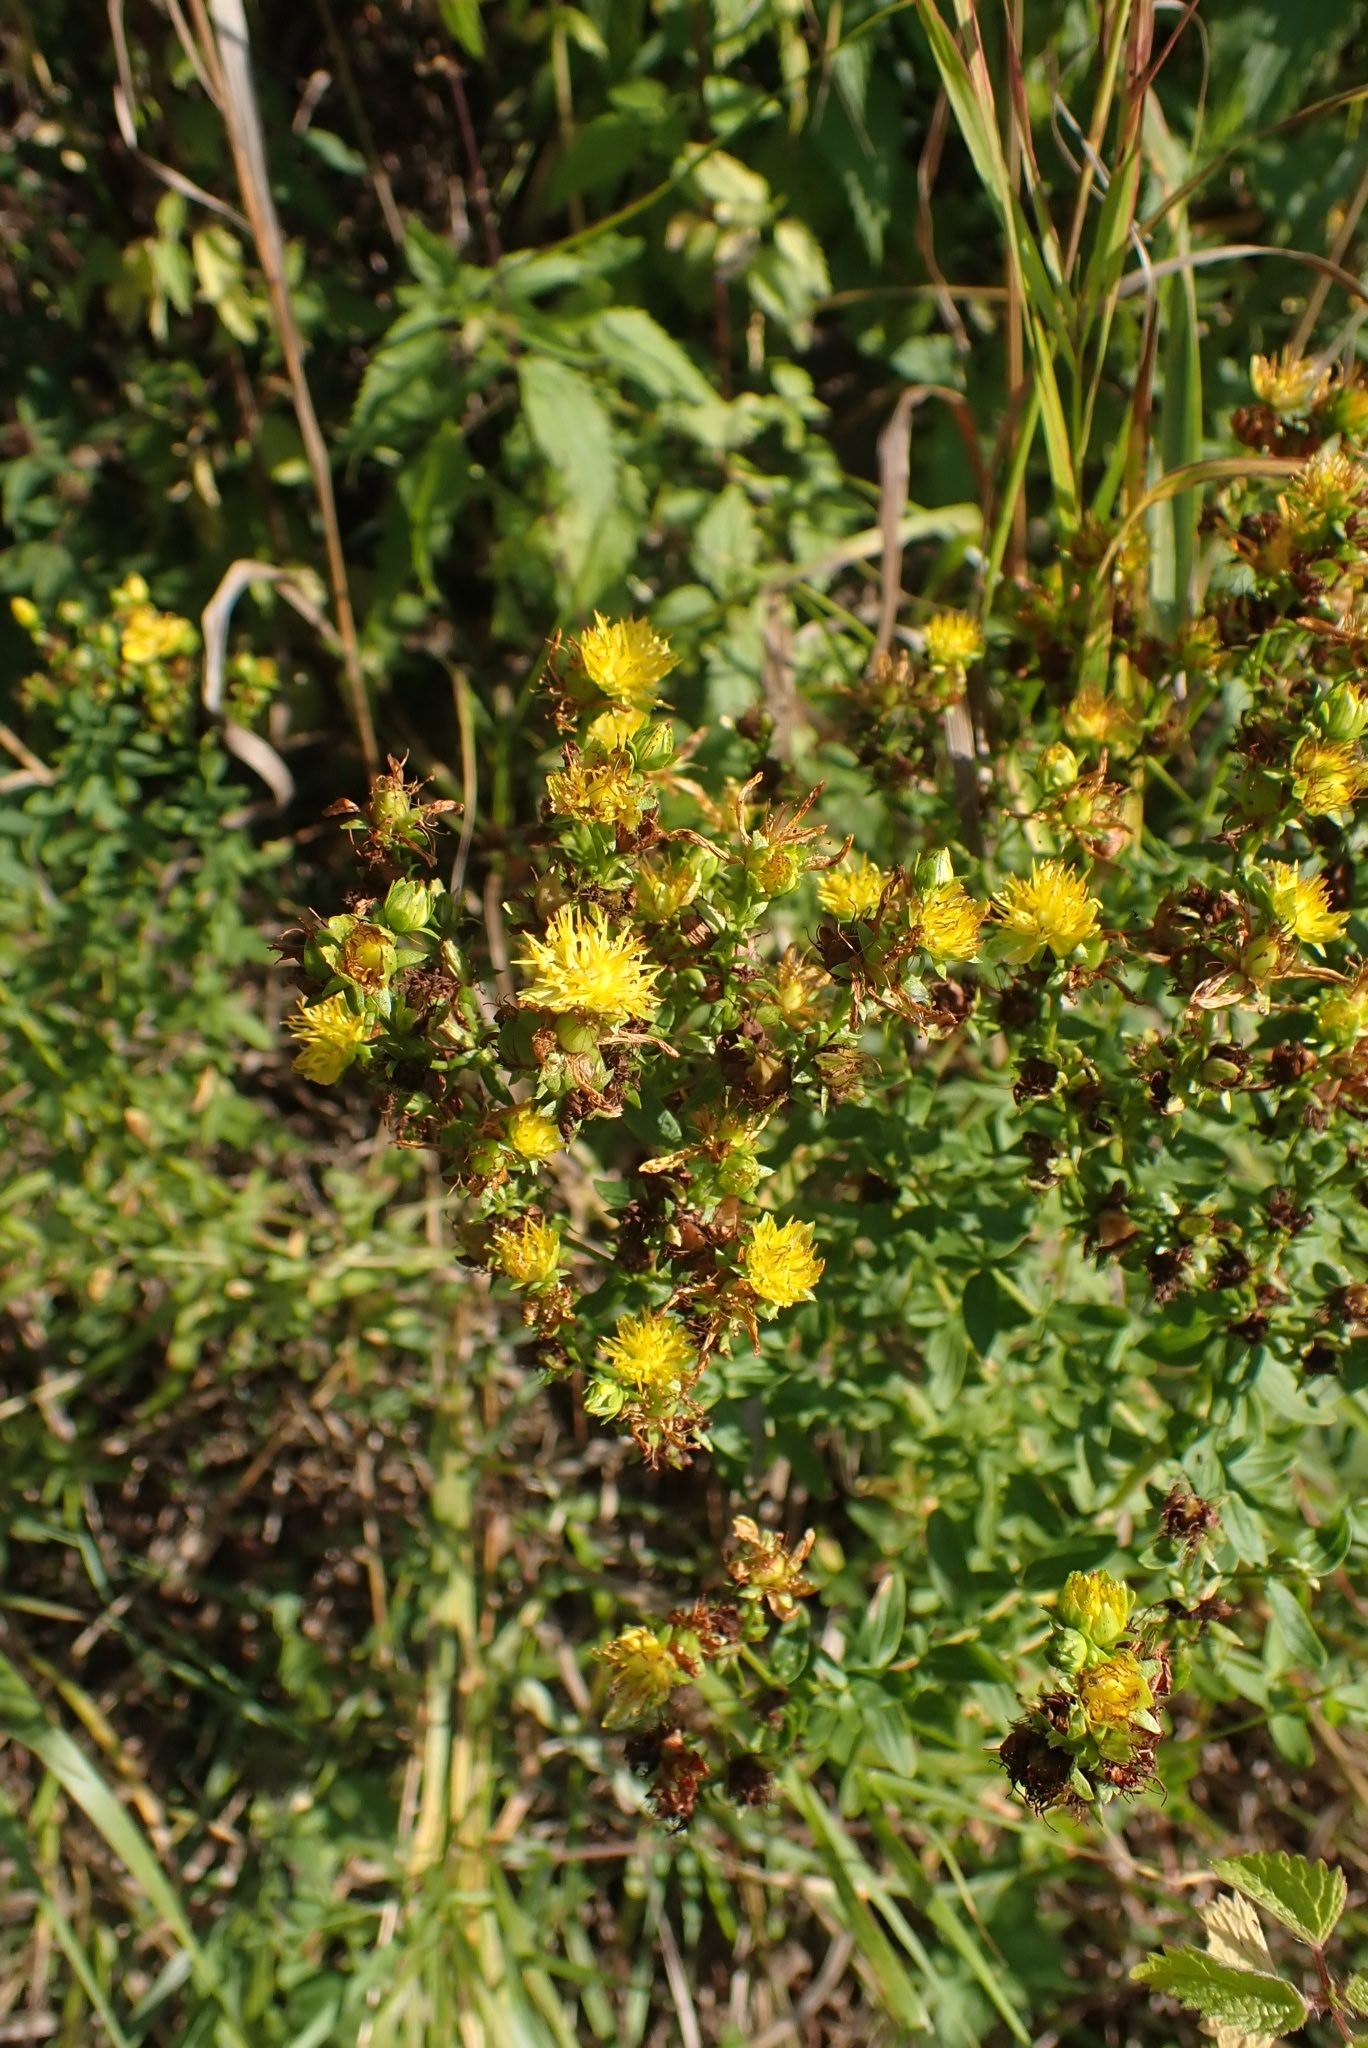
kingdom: Plantae
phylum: Tracheophyta
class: Magnoliopsida
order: Malpighiales
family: Hypericaceae
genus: Hypericum
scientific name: Hypericum perforatum
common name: Common st. johnswort
